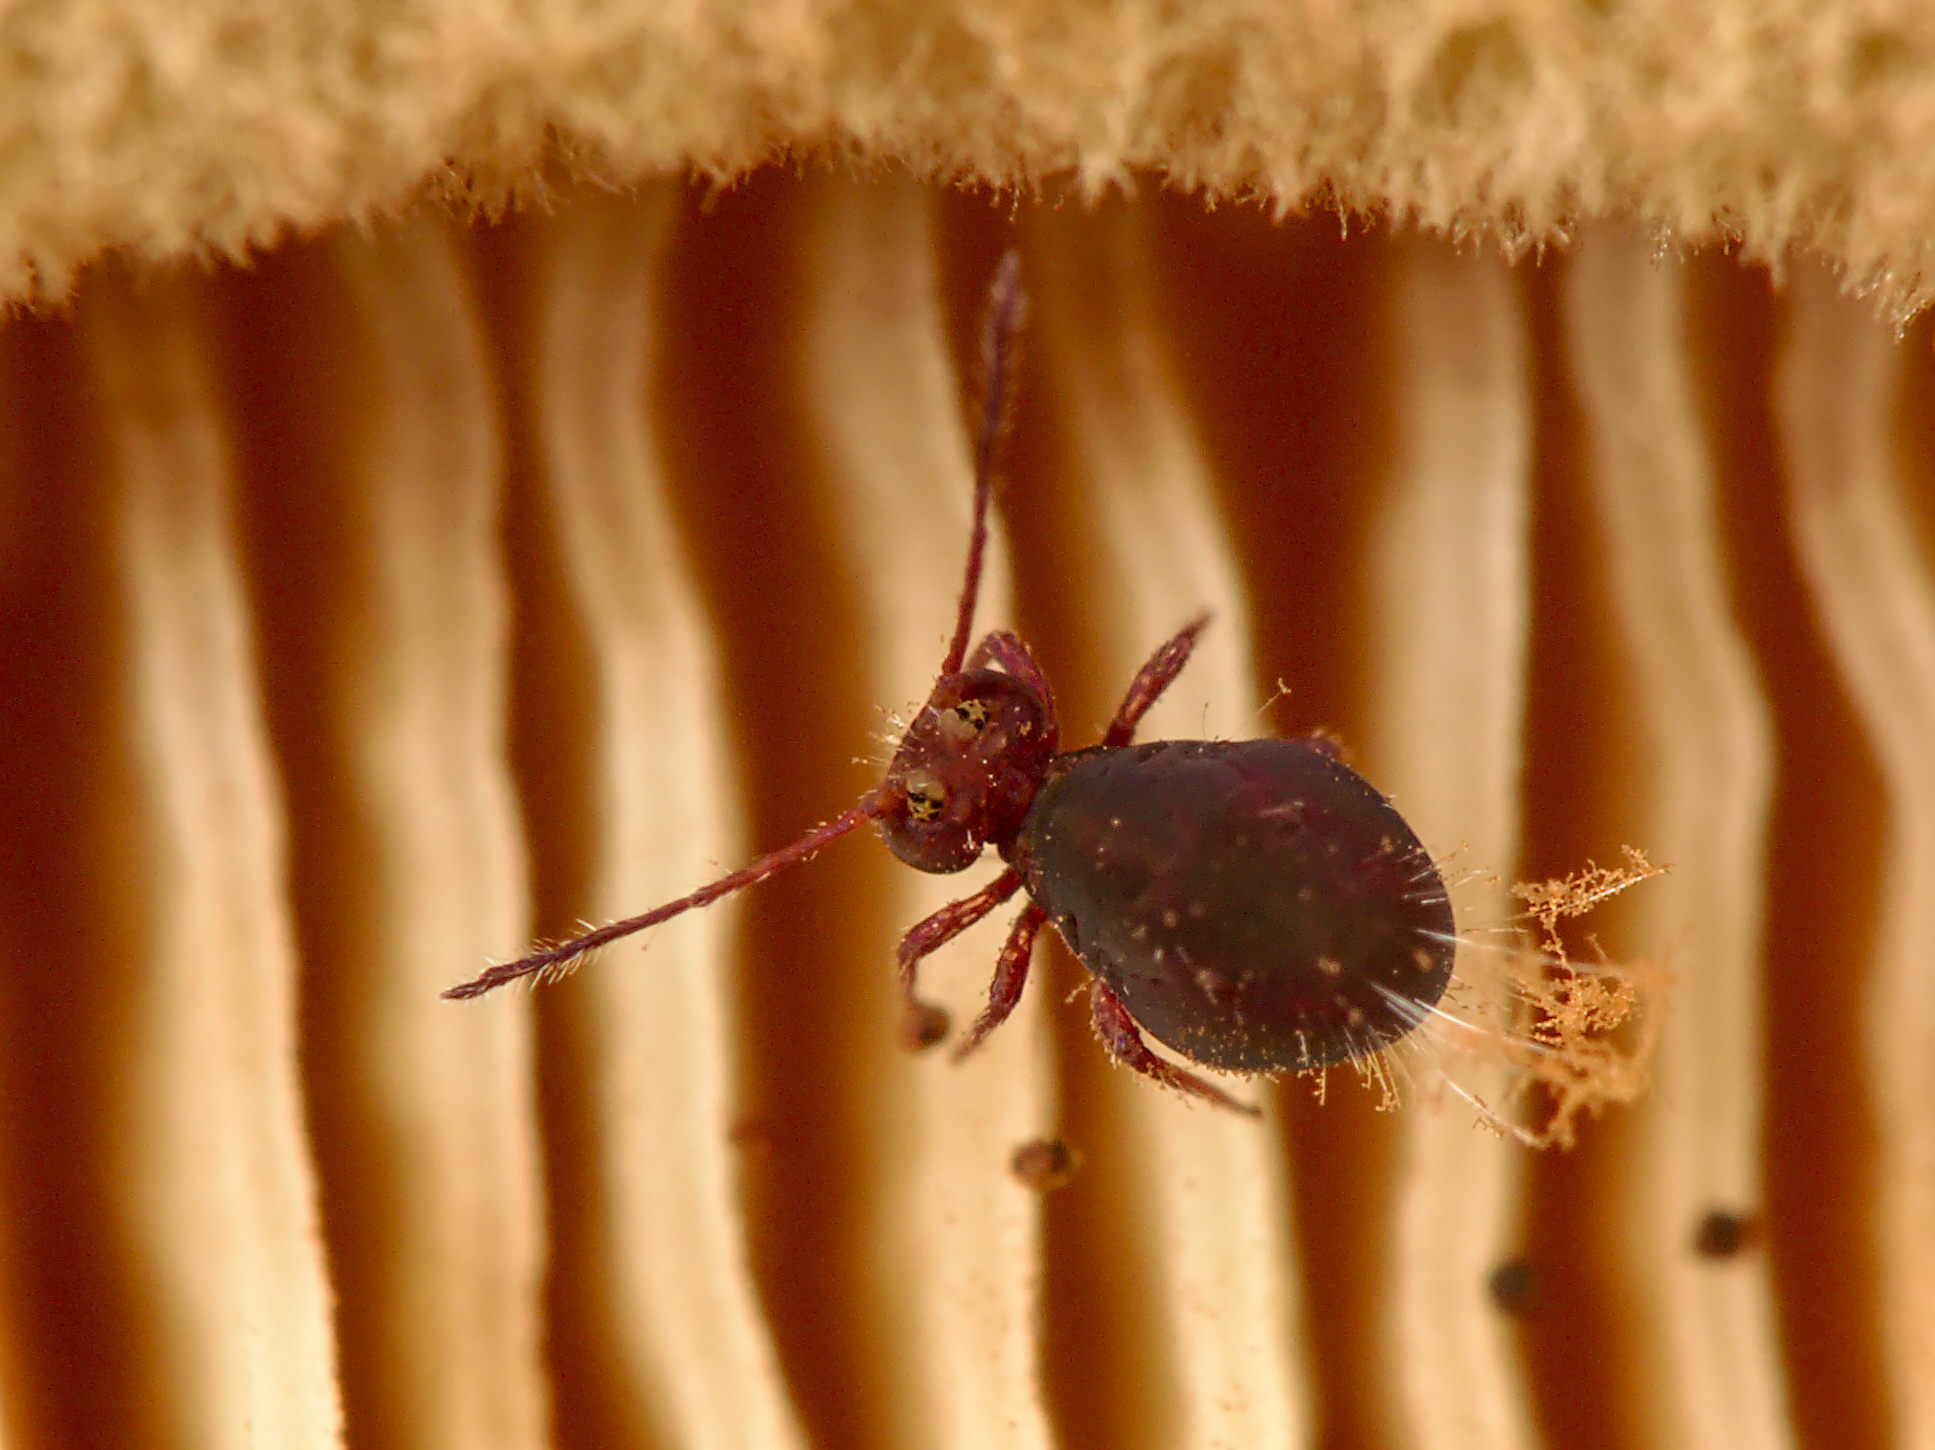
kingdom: Animalia
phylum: Arthropoda
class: Collembola
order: Symphypleona
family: Dicyrtomidae
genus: Dicyrtoma
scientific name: Dicyrtoma fusca
